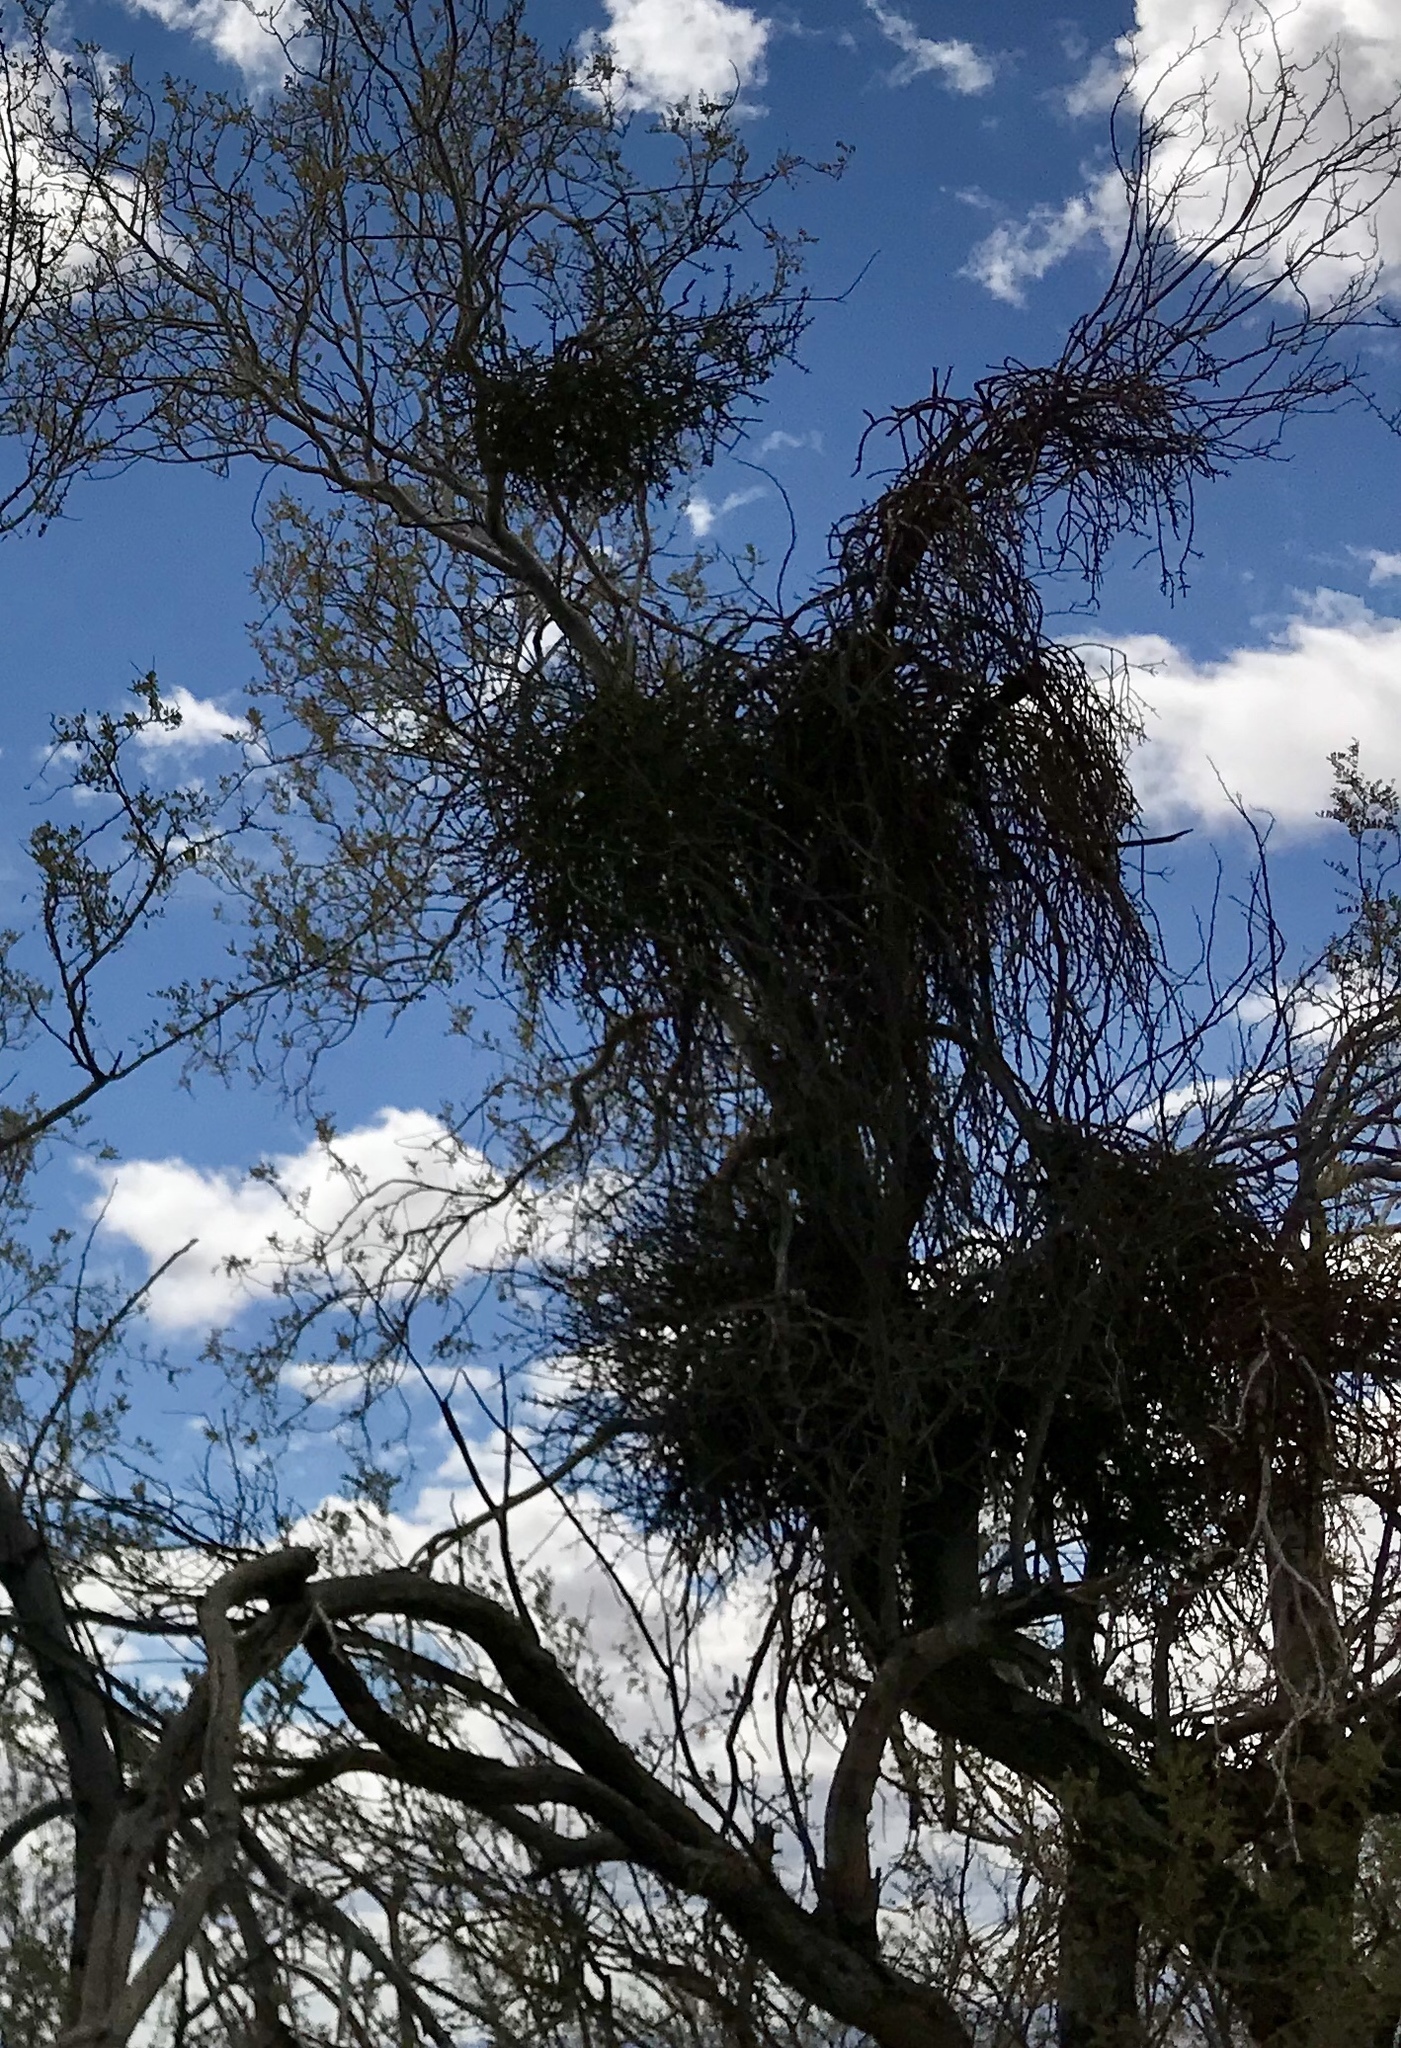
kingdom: Plantae
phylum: Tracheophyta
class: Magnoliopsida
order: Santalales
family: Viscaceae
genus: Phoradendron
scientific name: Phoradendron californicum
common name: Acacia mistletoe
